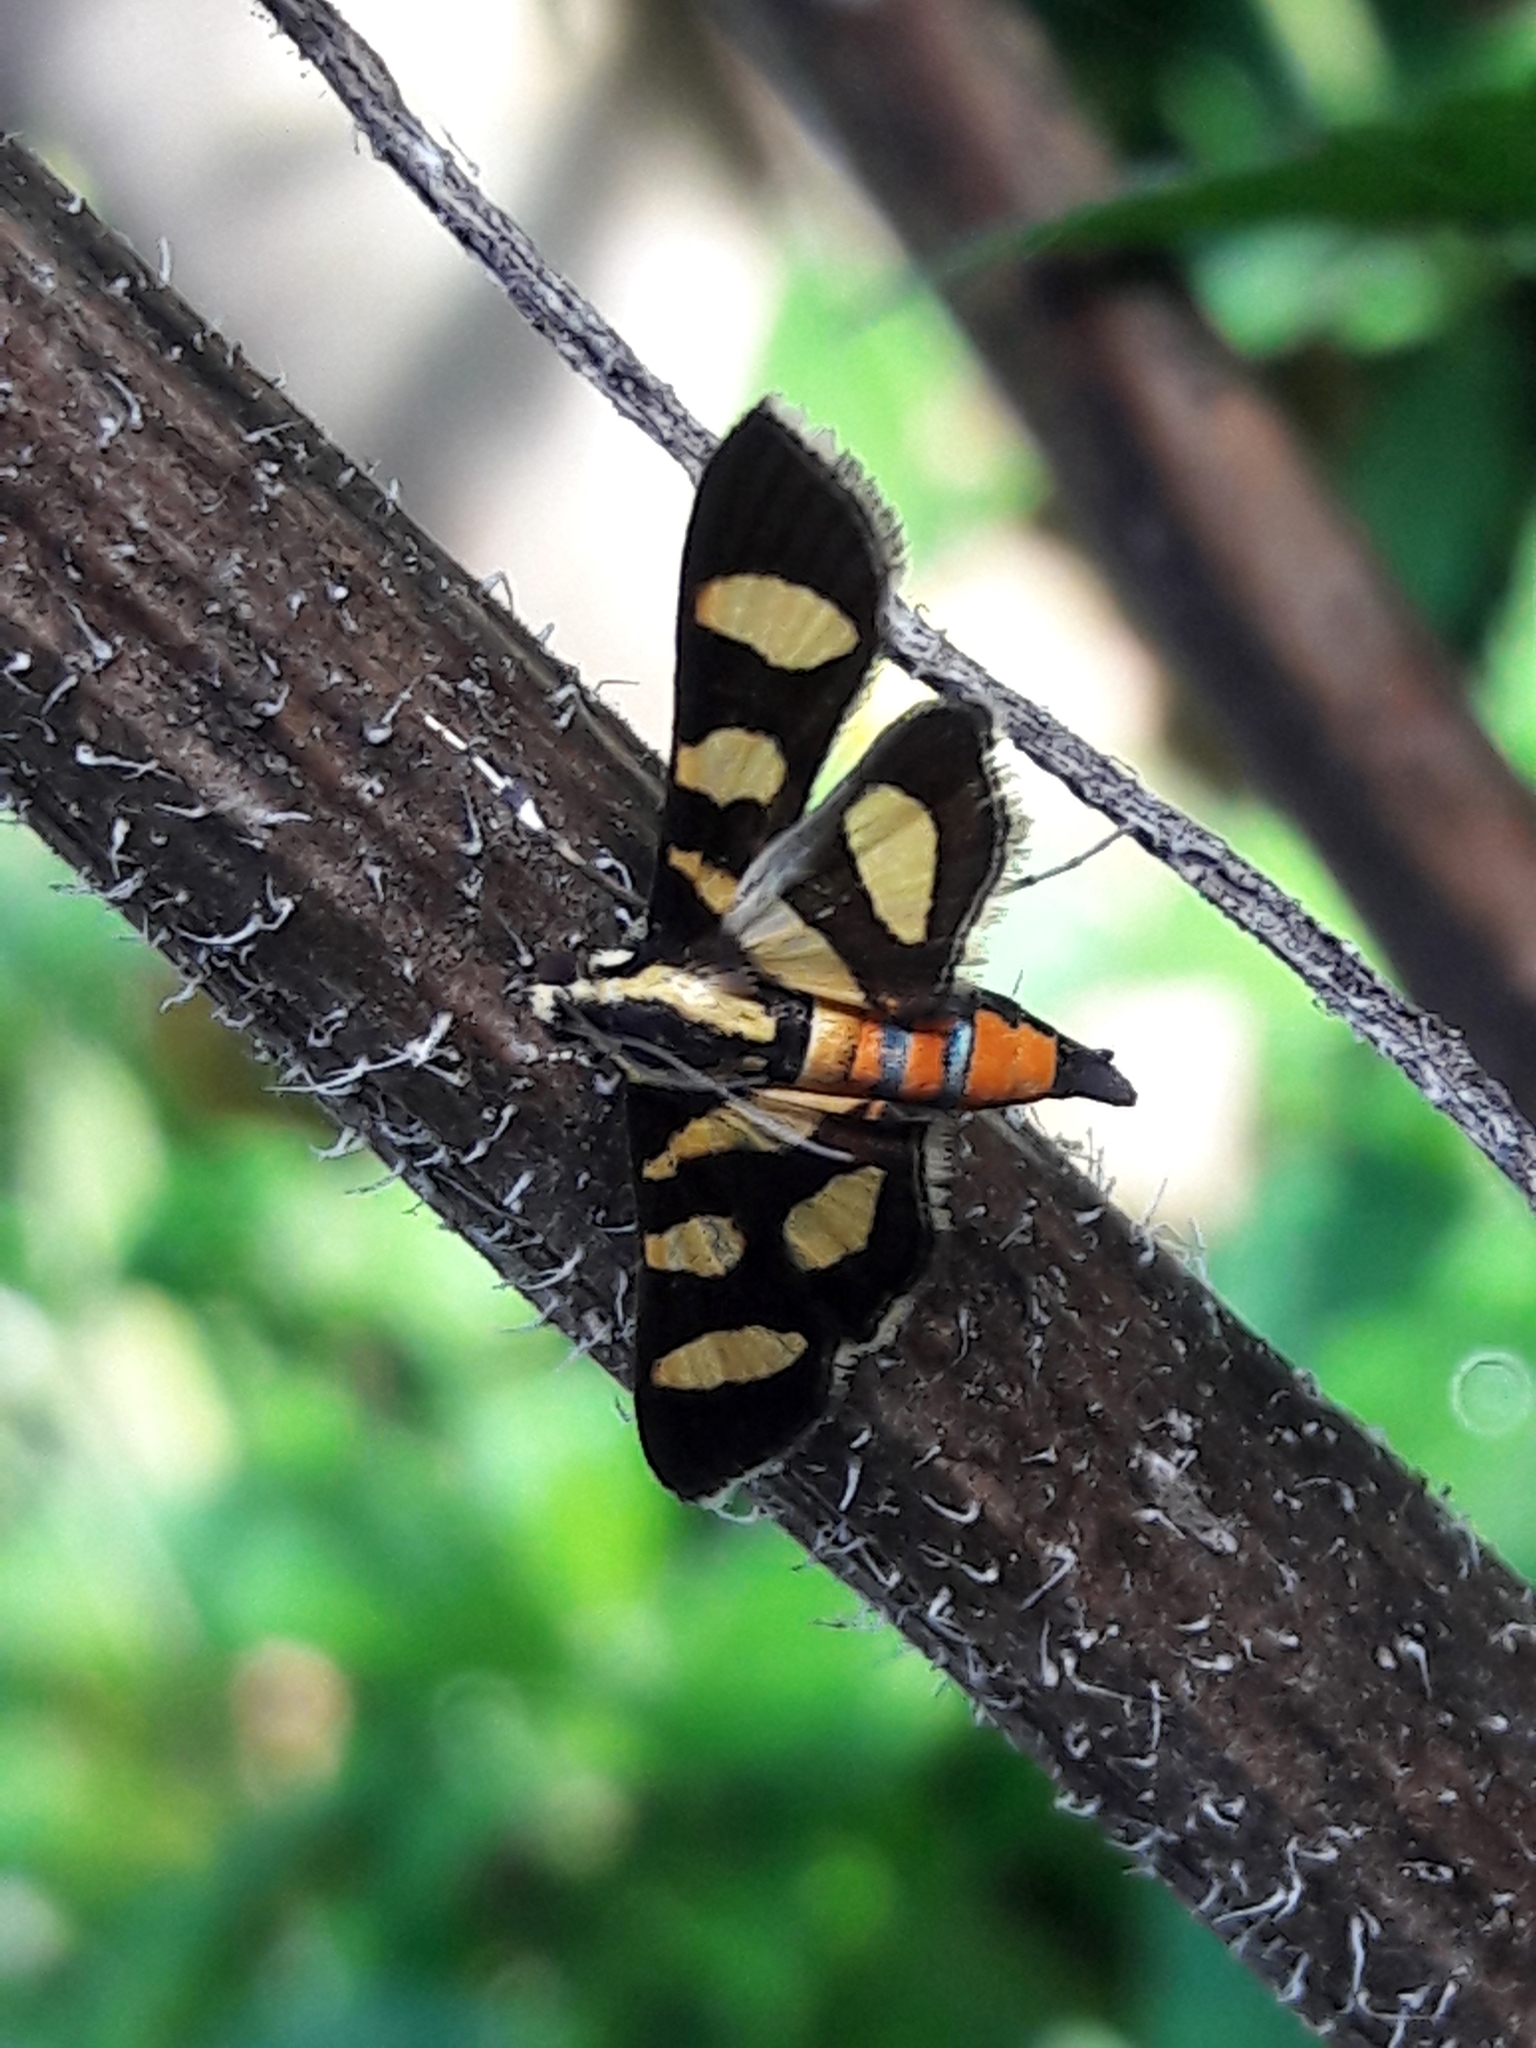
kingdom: Animalia
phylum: Arthropoda
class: Insecta
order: Lepidoptera
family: Crambidae
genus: Syngamia
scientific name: Syngamia florella
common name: Orange-spotted flower moth
